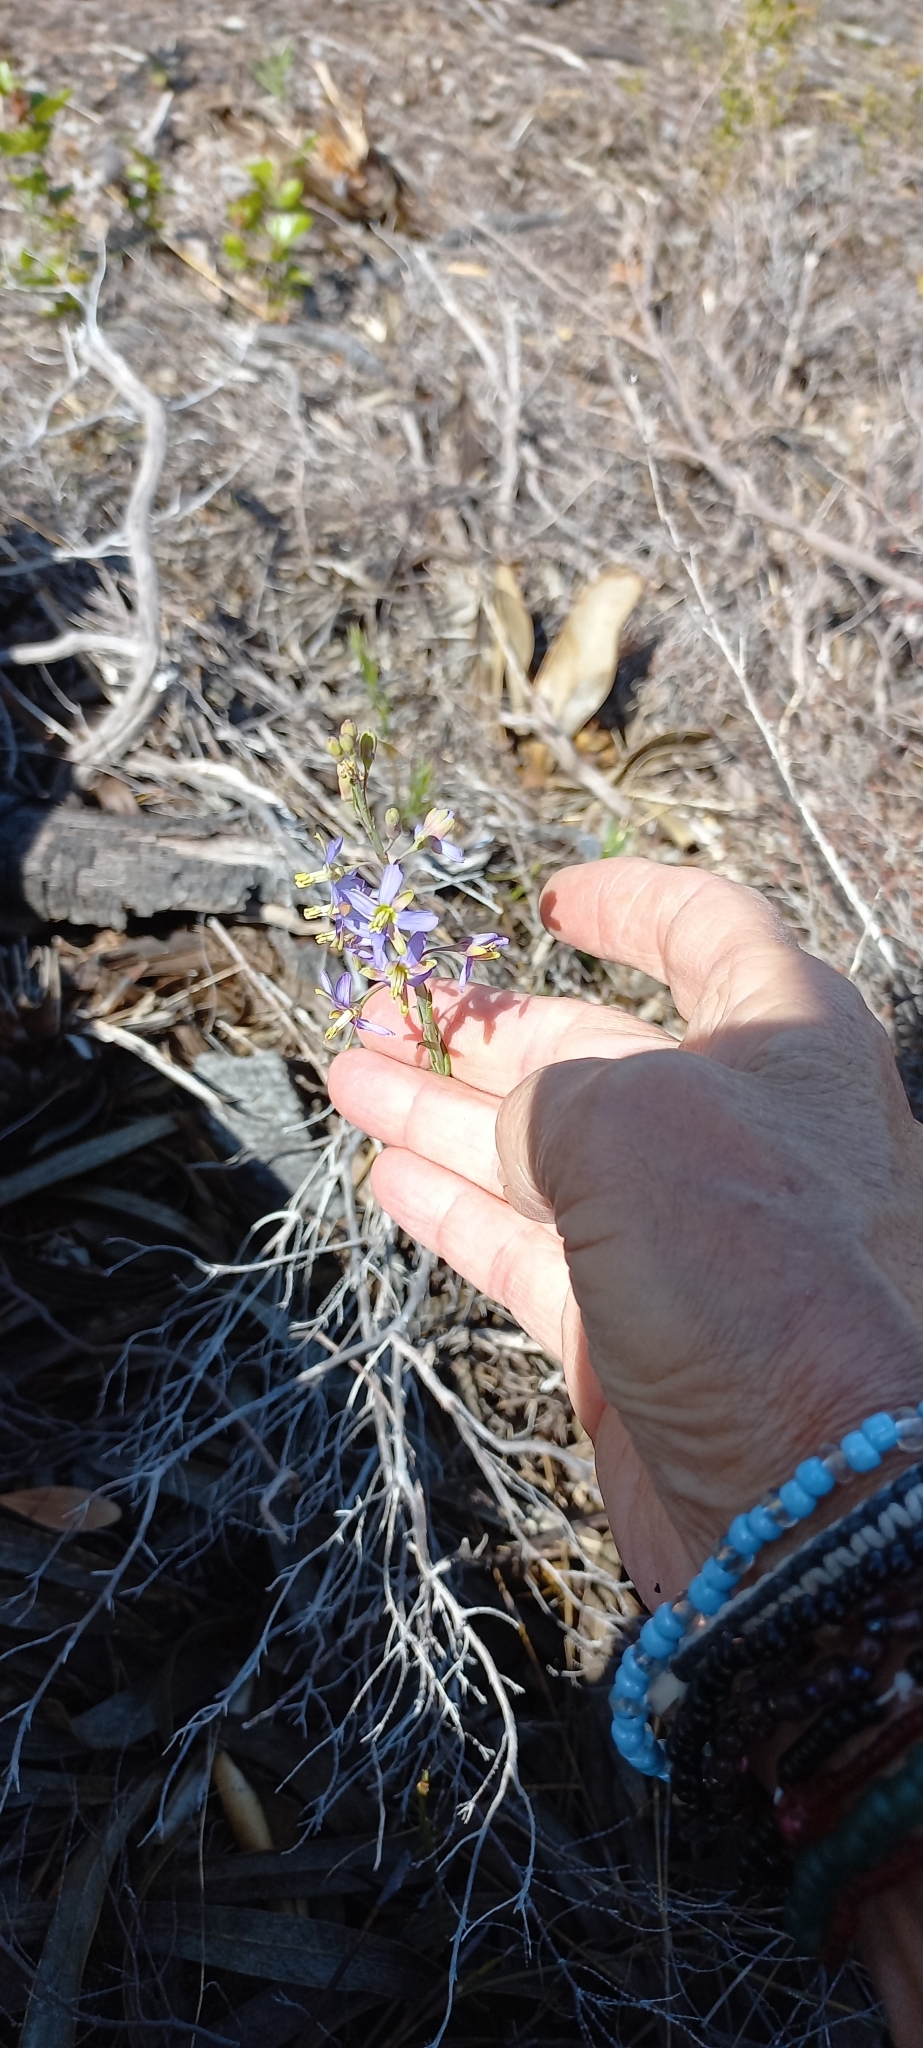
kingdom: Plantae
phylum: Tracheophyta
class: Magnoliopsida
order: Brassicales
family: Brassicaceae
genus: Heliophila
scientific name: Heliophila linearis
